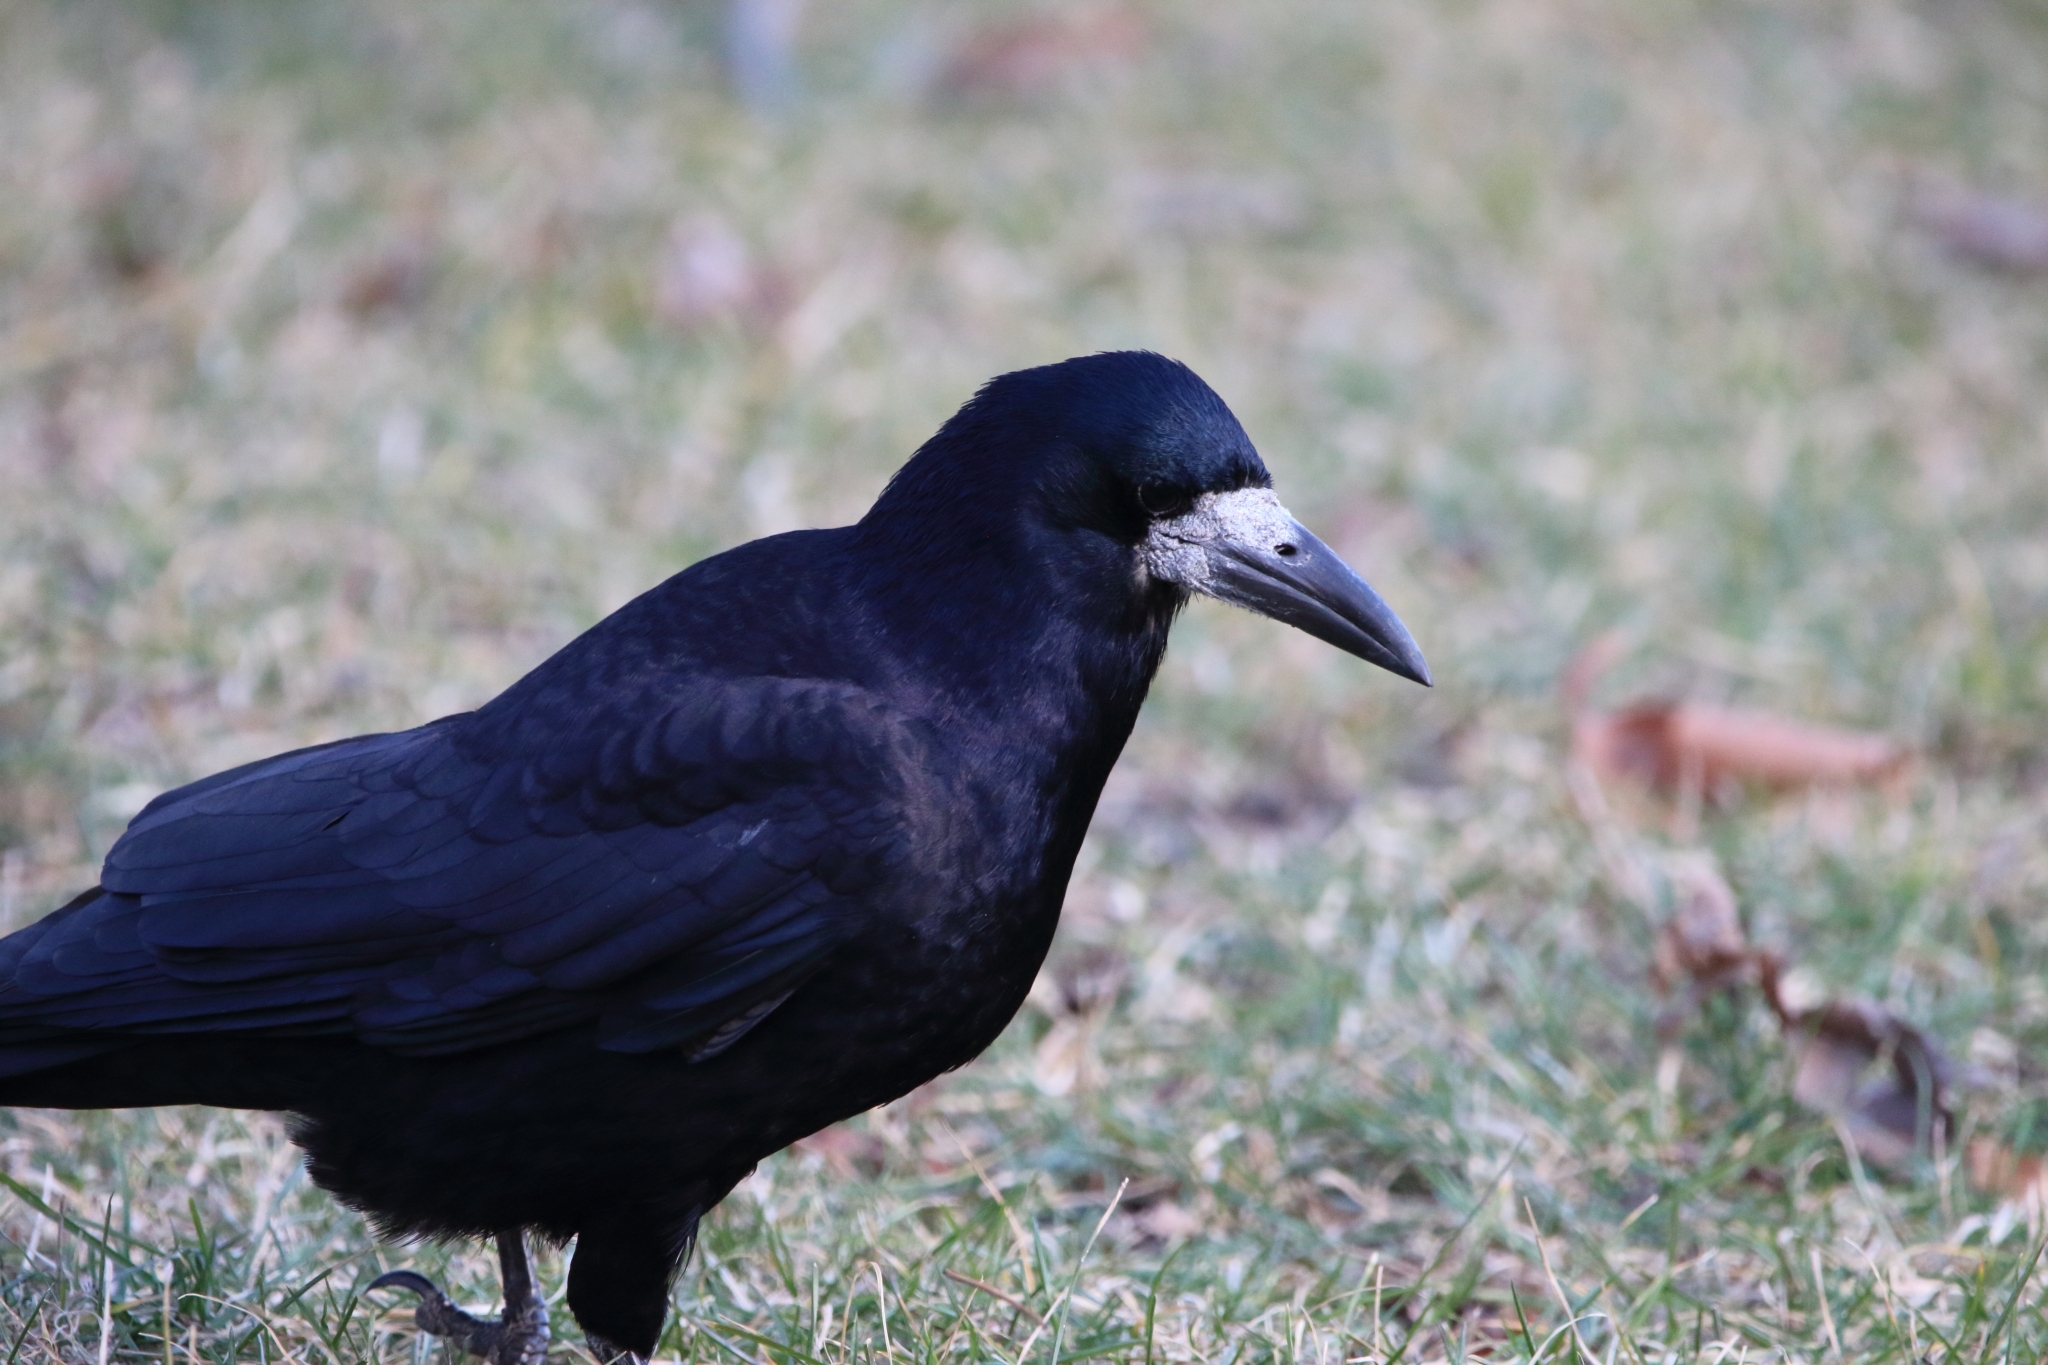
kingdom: Animalia
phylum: Chordata
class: Aves
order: Passeriformes
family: Corvidae
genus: Corvus
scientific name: Corvus frugilegus
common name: Rook
